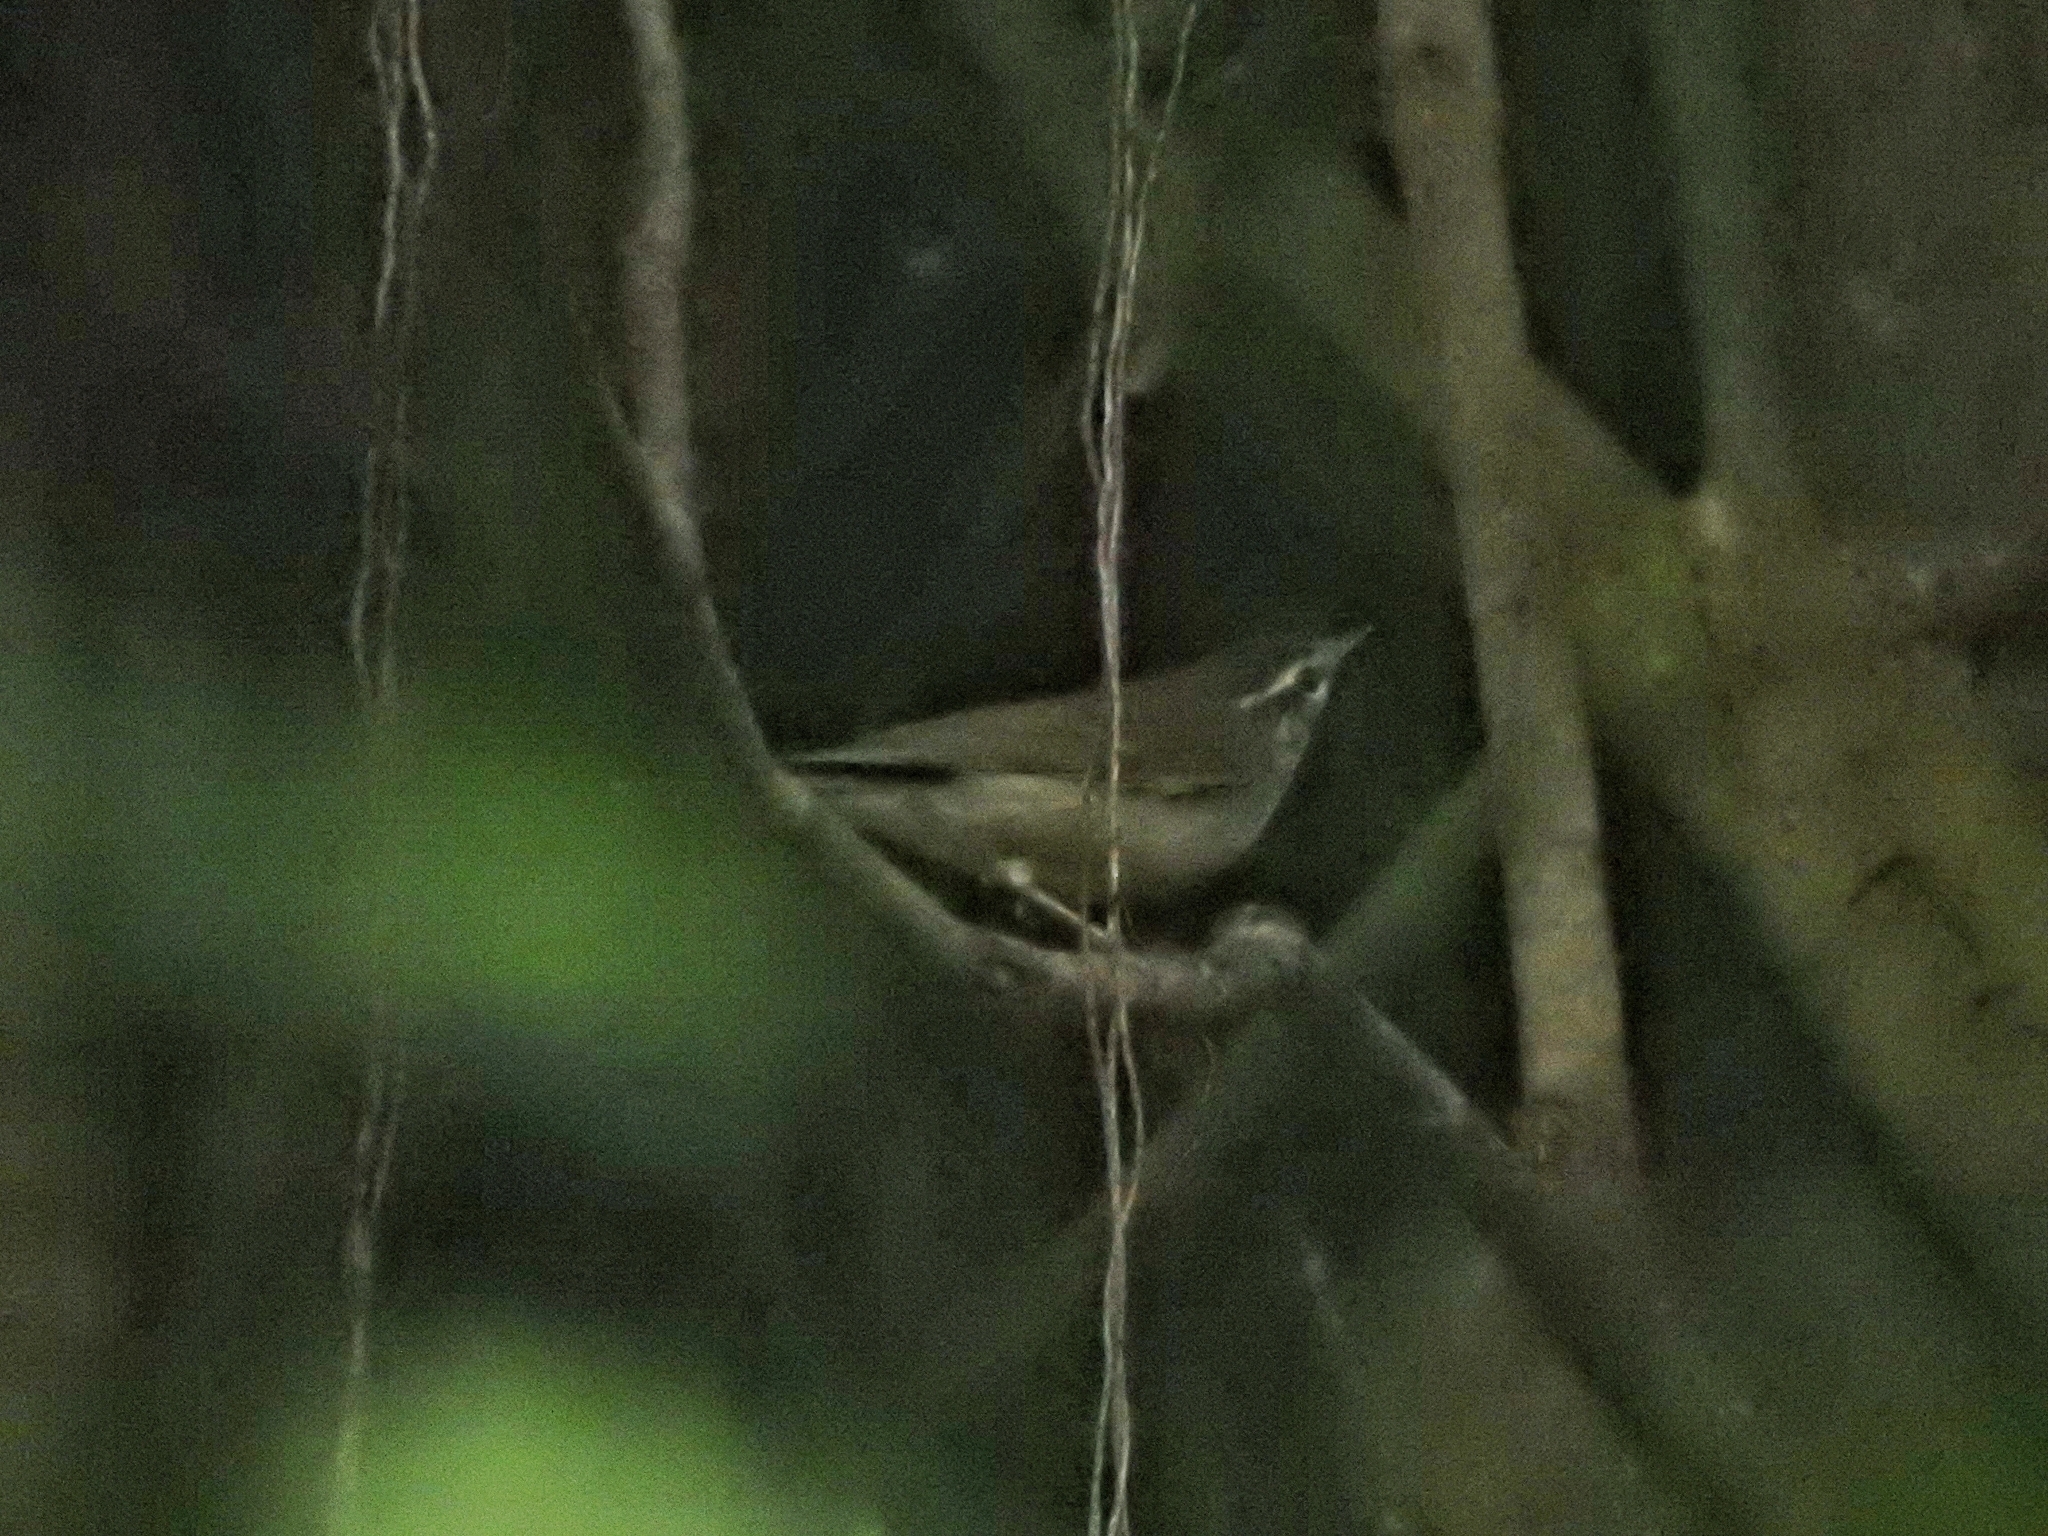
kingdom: Animalia
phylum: Chordata
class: Aves
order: Passeriformes
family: Phylloscopidae
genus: Phylloscopus
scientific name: Phylloscopus magnirostris
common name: Large-billed leaf warbler
